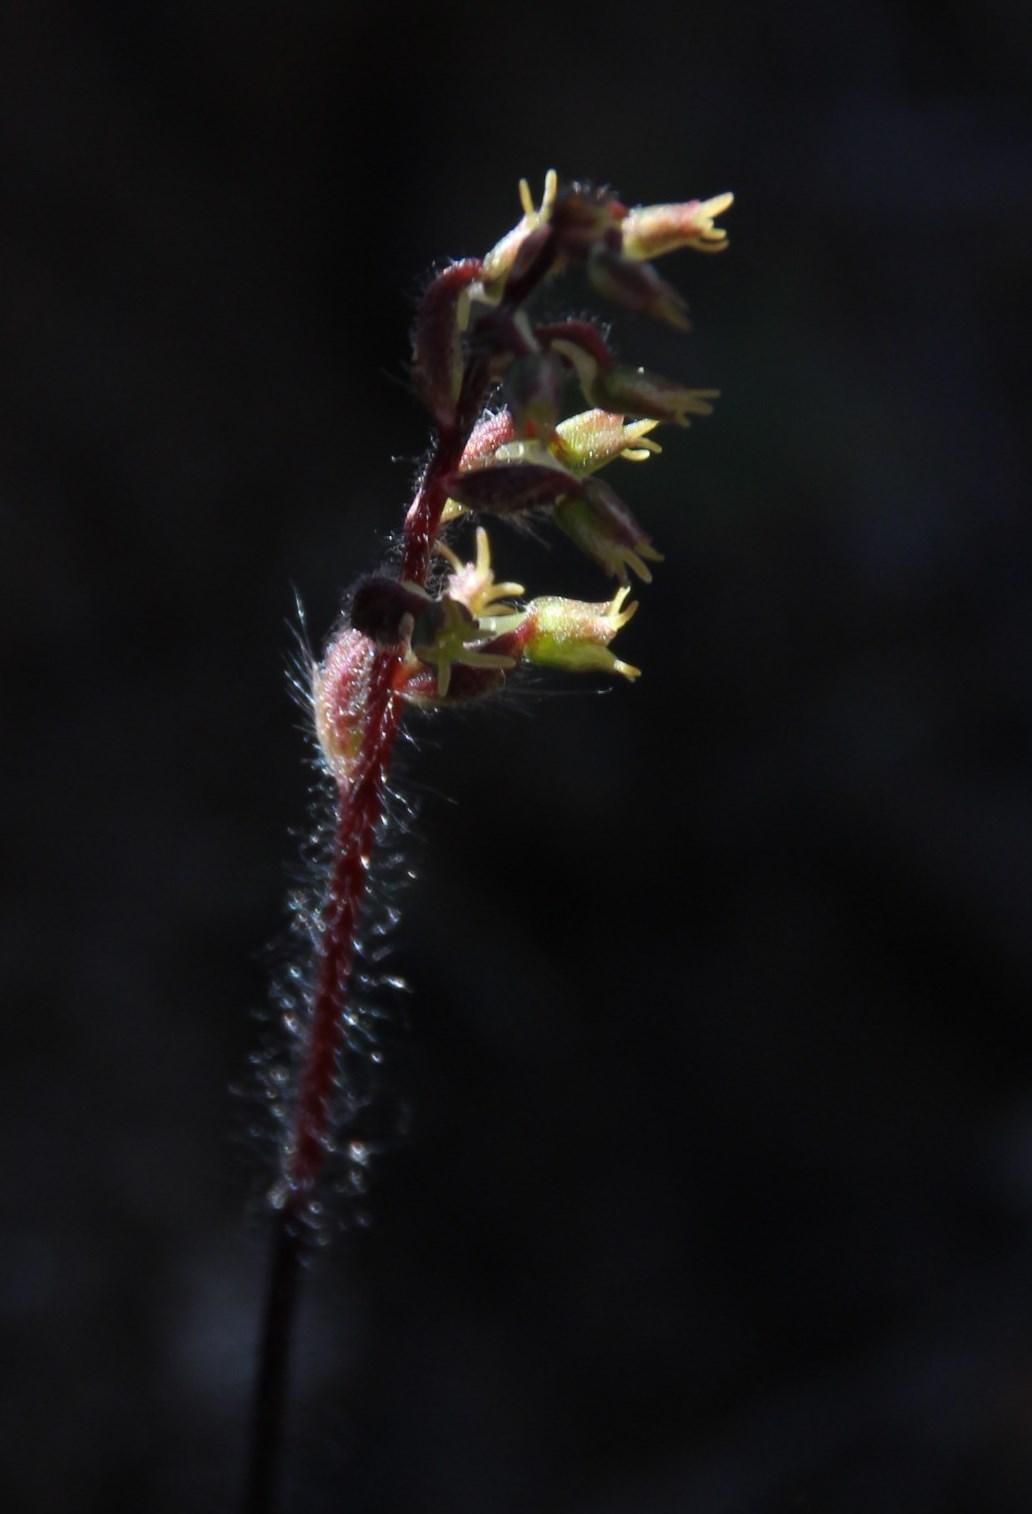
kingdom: Plantae
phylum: Tracheophyta
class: Liliopsida
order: Asparagales
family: Orchidaceae
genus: Holothrix
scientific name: Holothrix villosa
